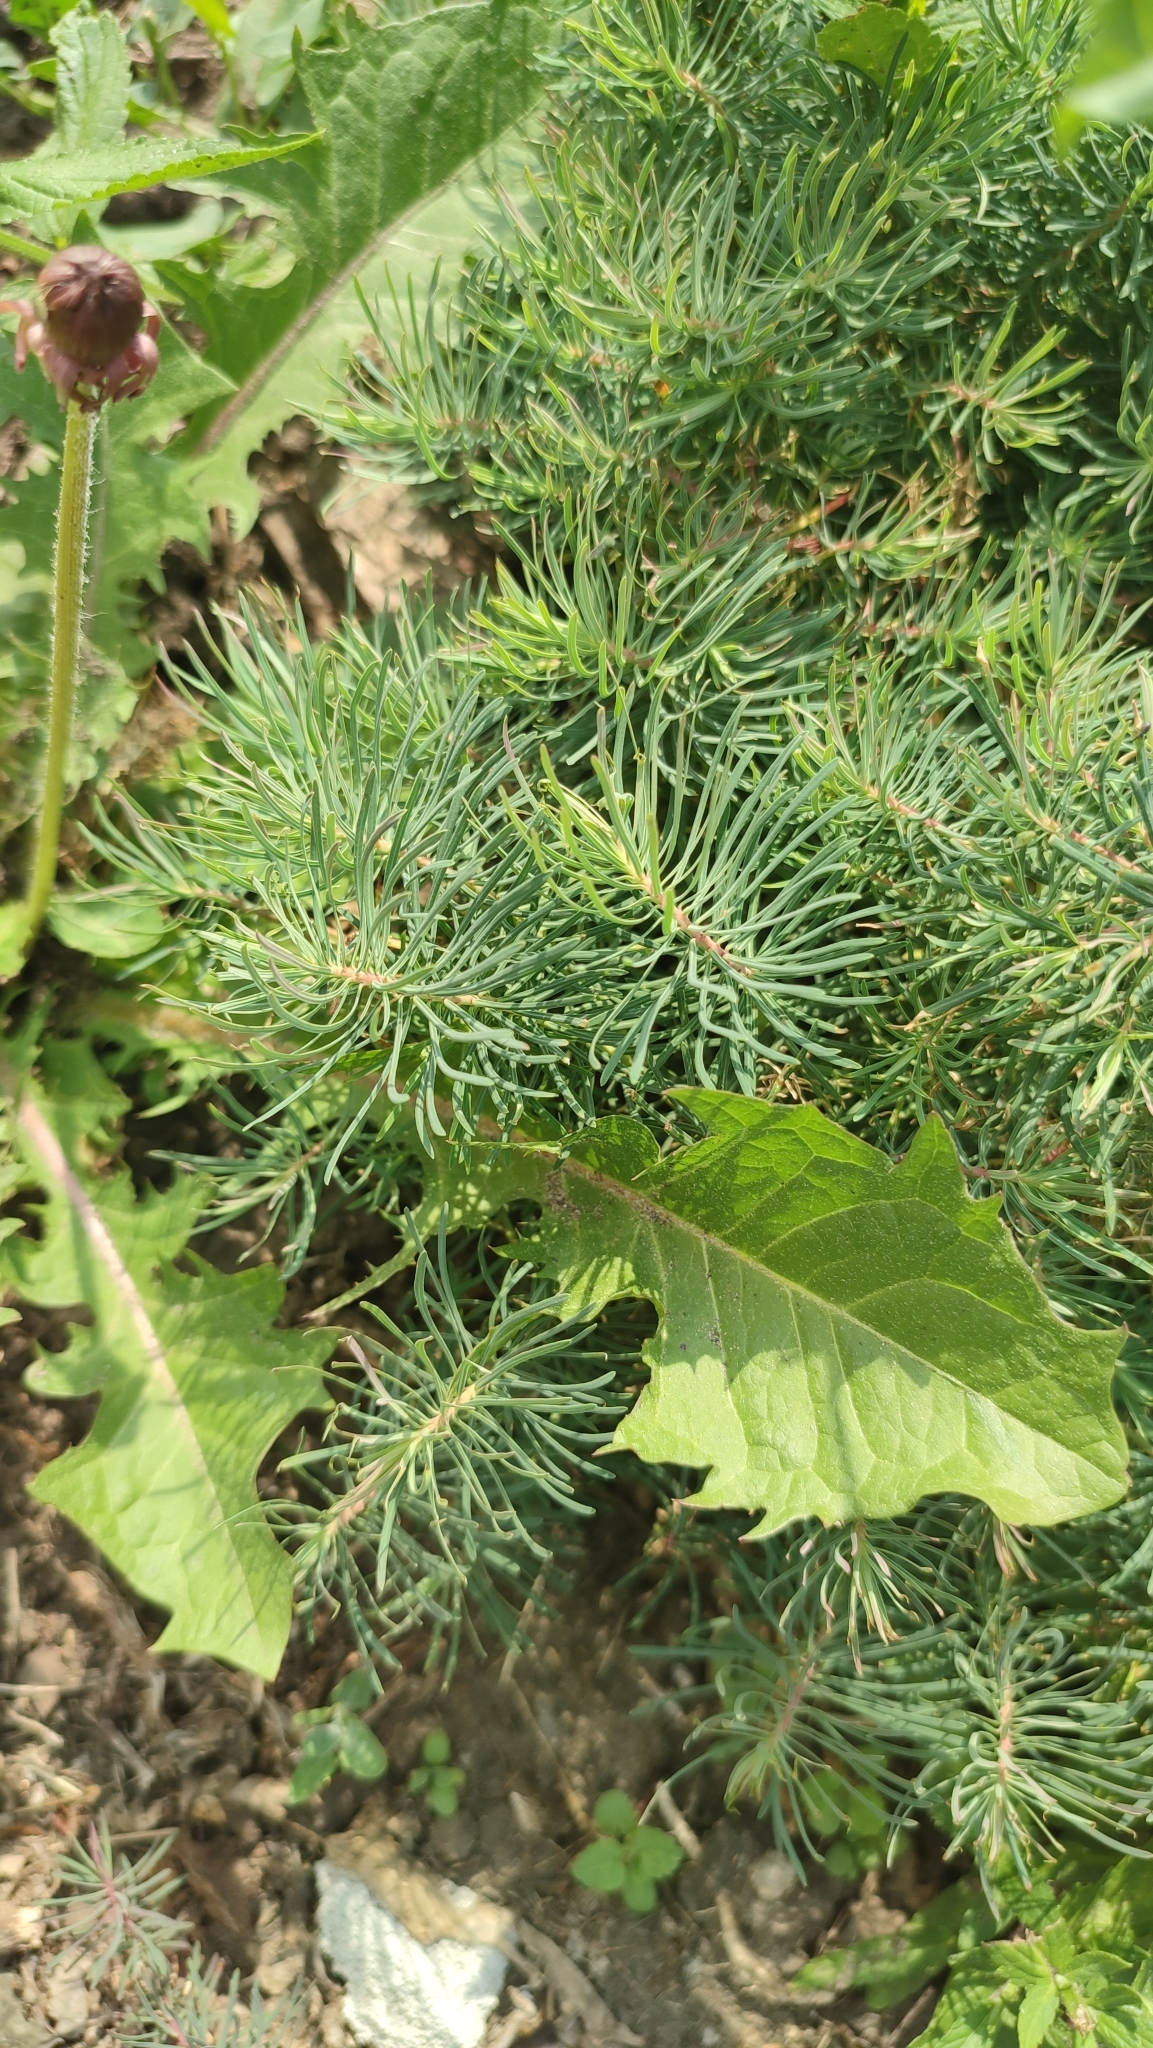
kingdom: Plantae
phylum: Tracheophyta
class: Magnoliopsida
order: Malpighiales
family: Euphorbiaceae
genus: Euphorbia
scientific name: Euphorbia cyparissias
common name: Cypress spurge
